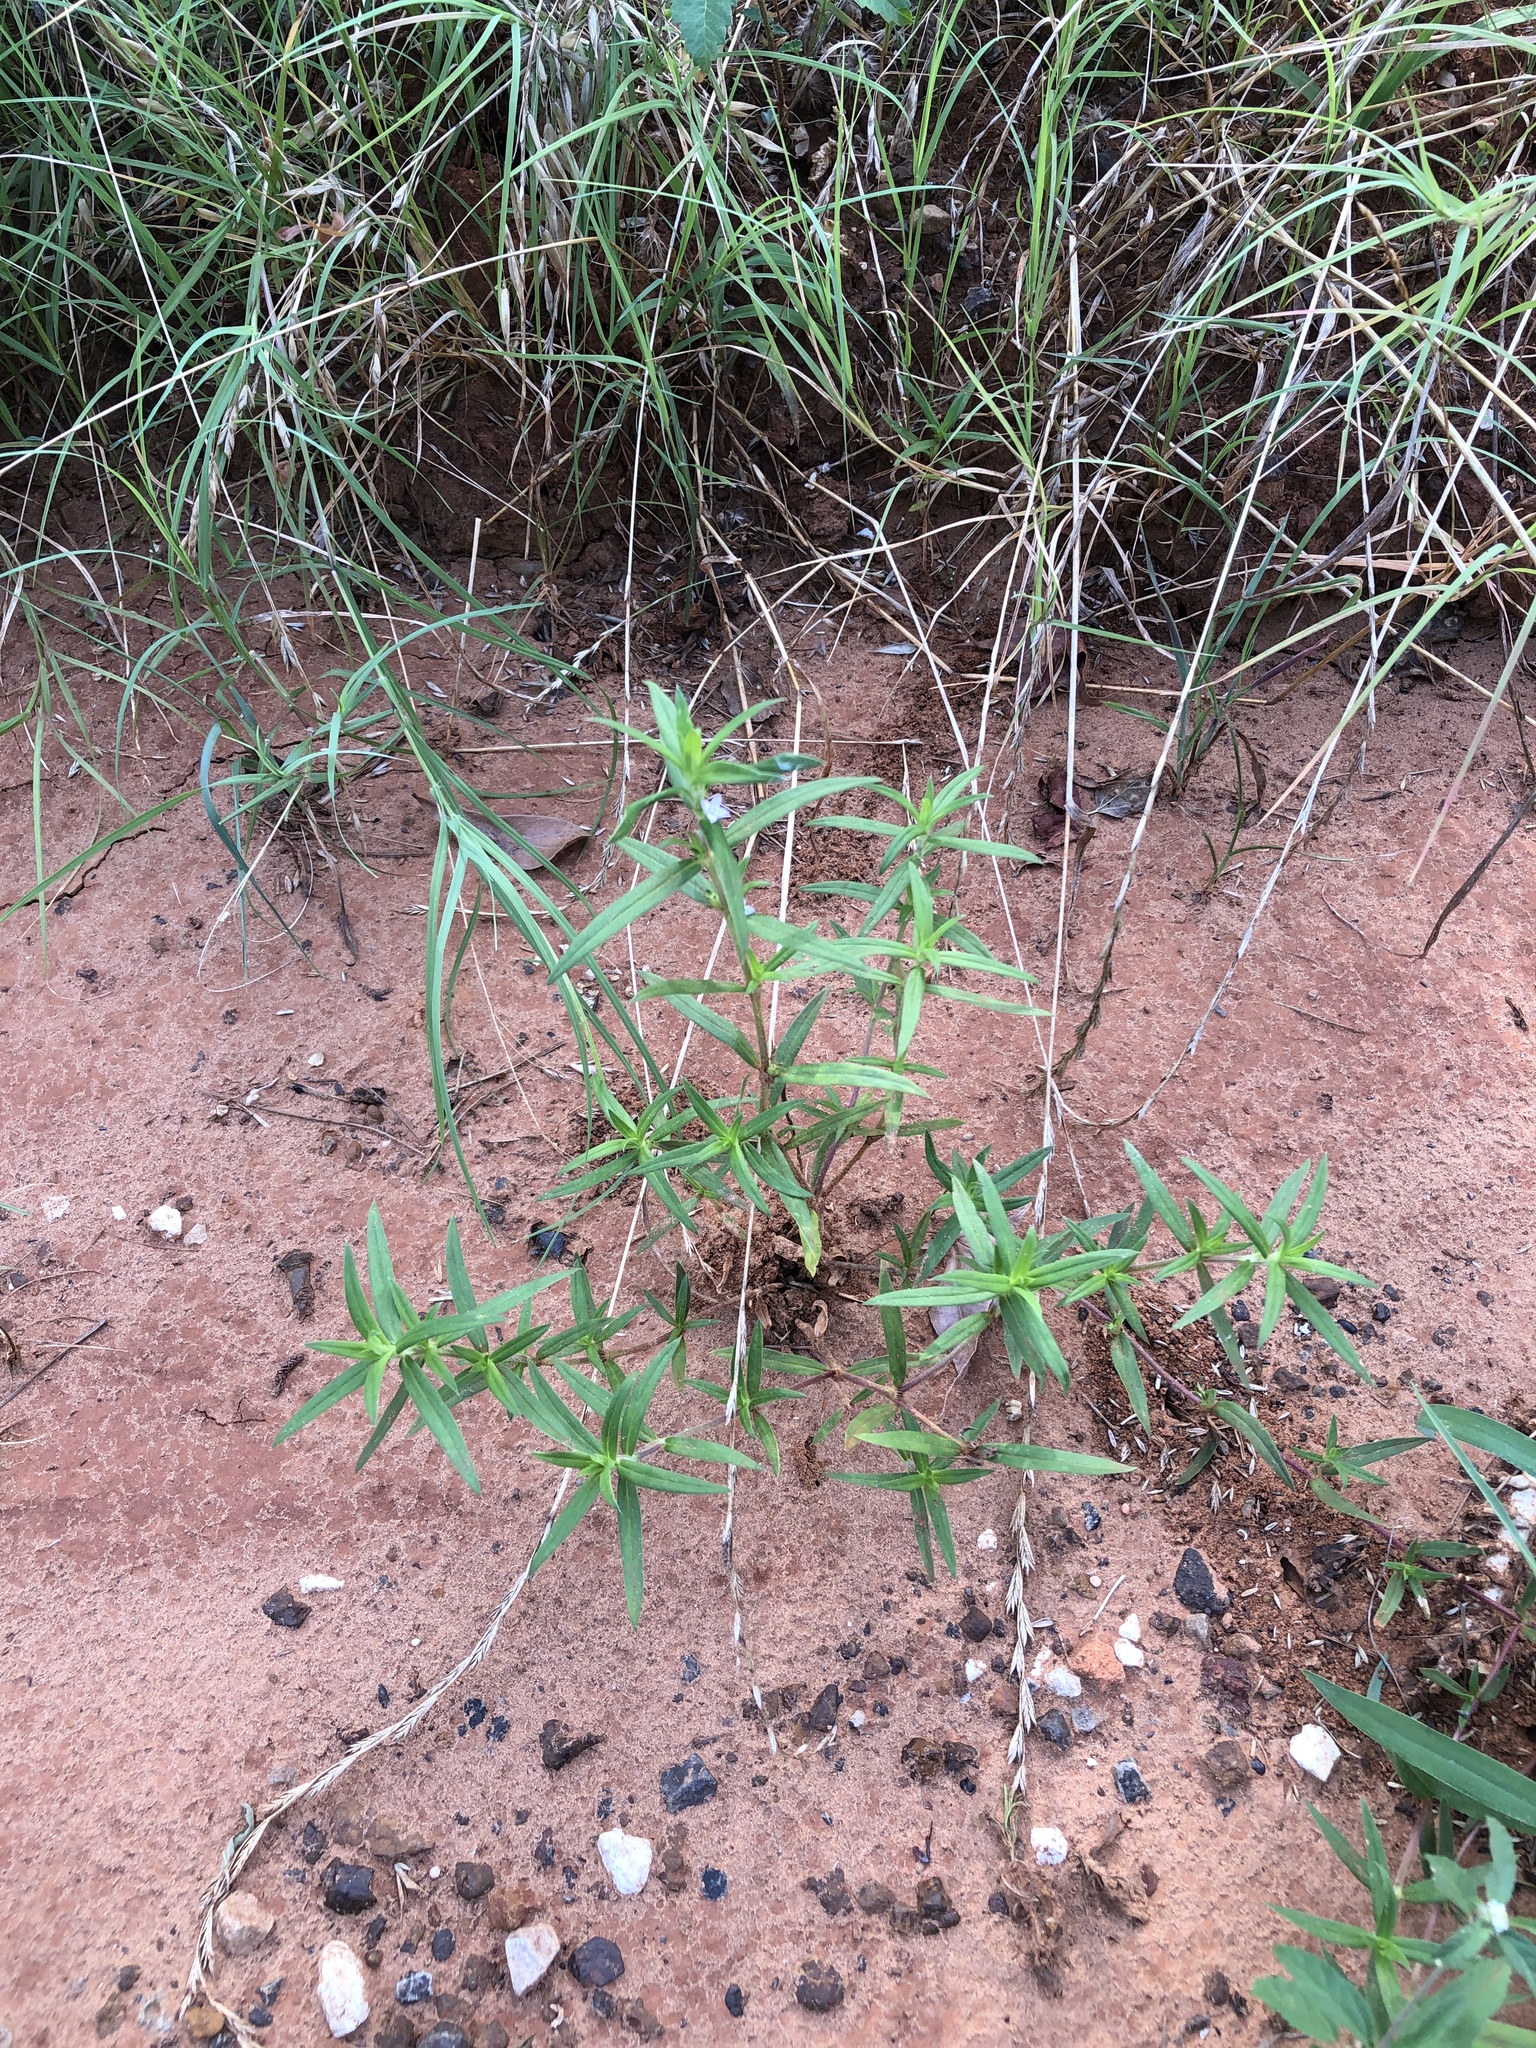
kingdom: Plantae
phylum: Tracheophyta
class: Magnoliopsida
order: Gentianales
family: Rubiaceae
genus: Hexasepalum
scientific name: Hexasepalum teres
